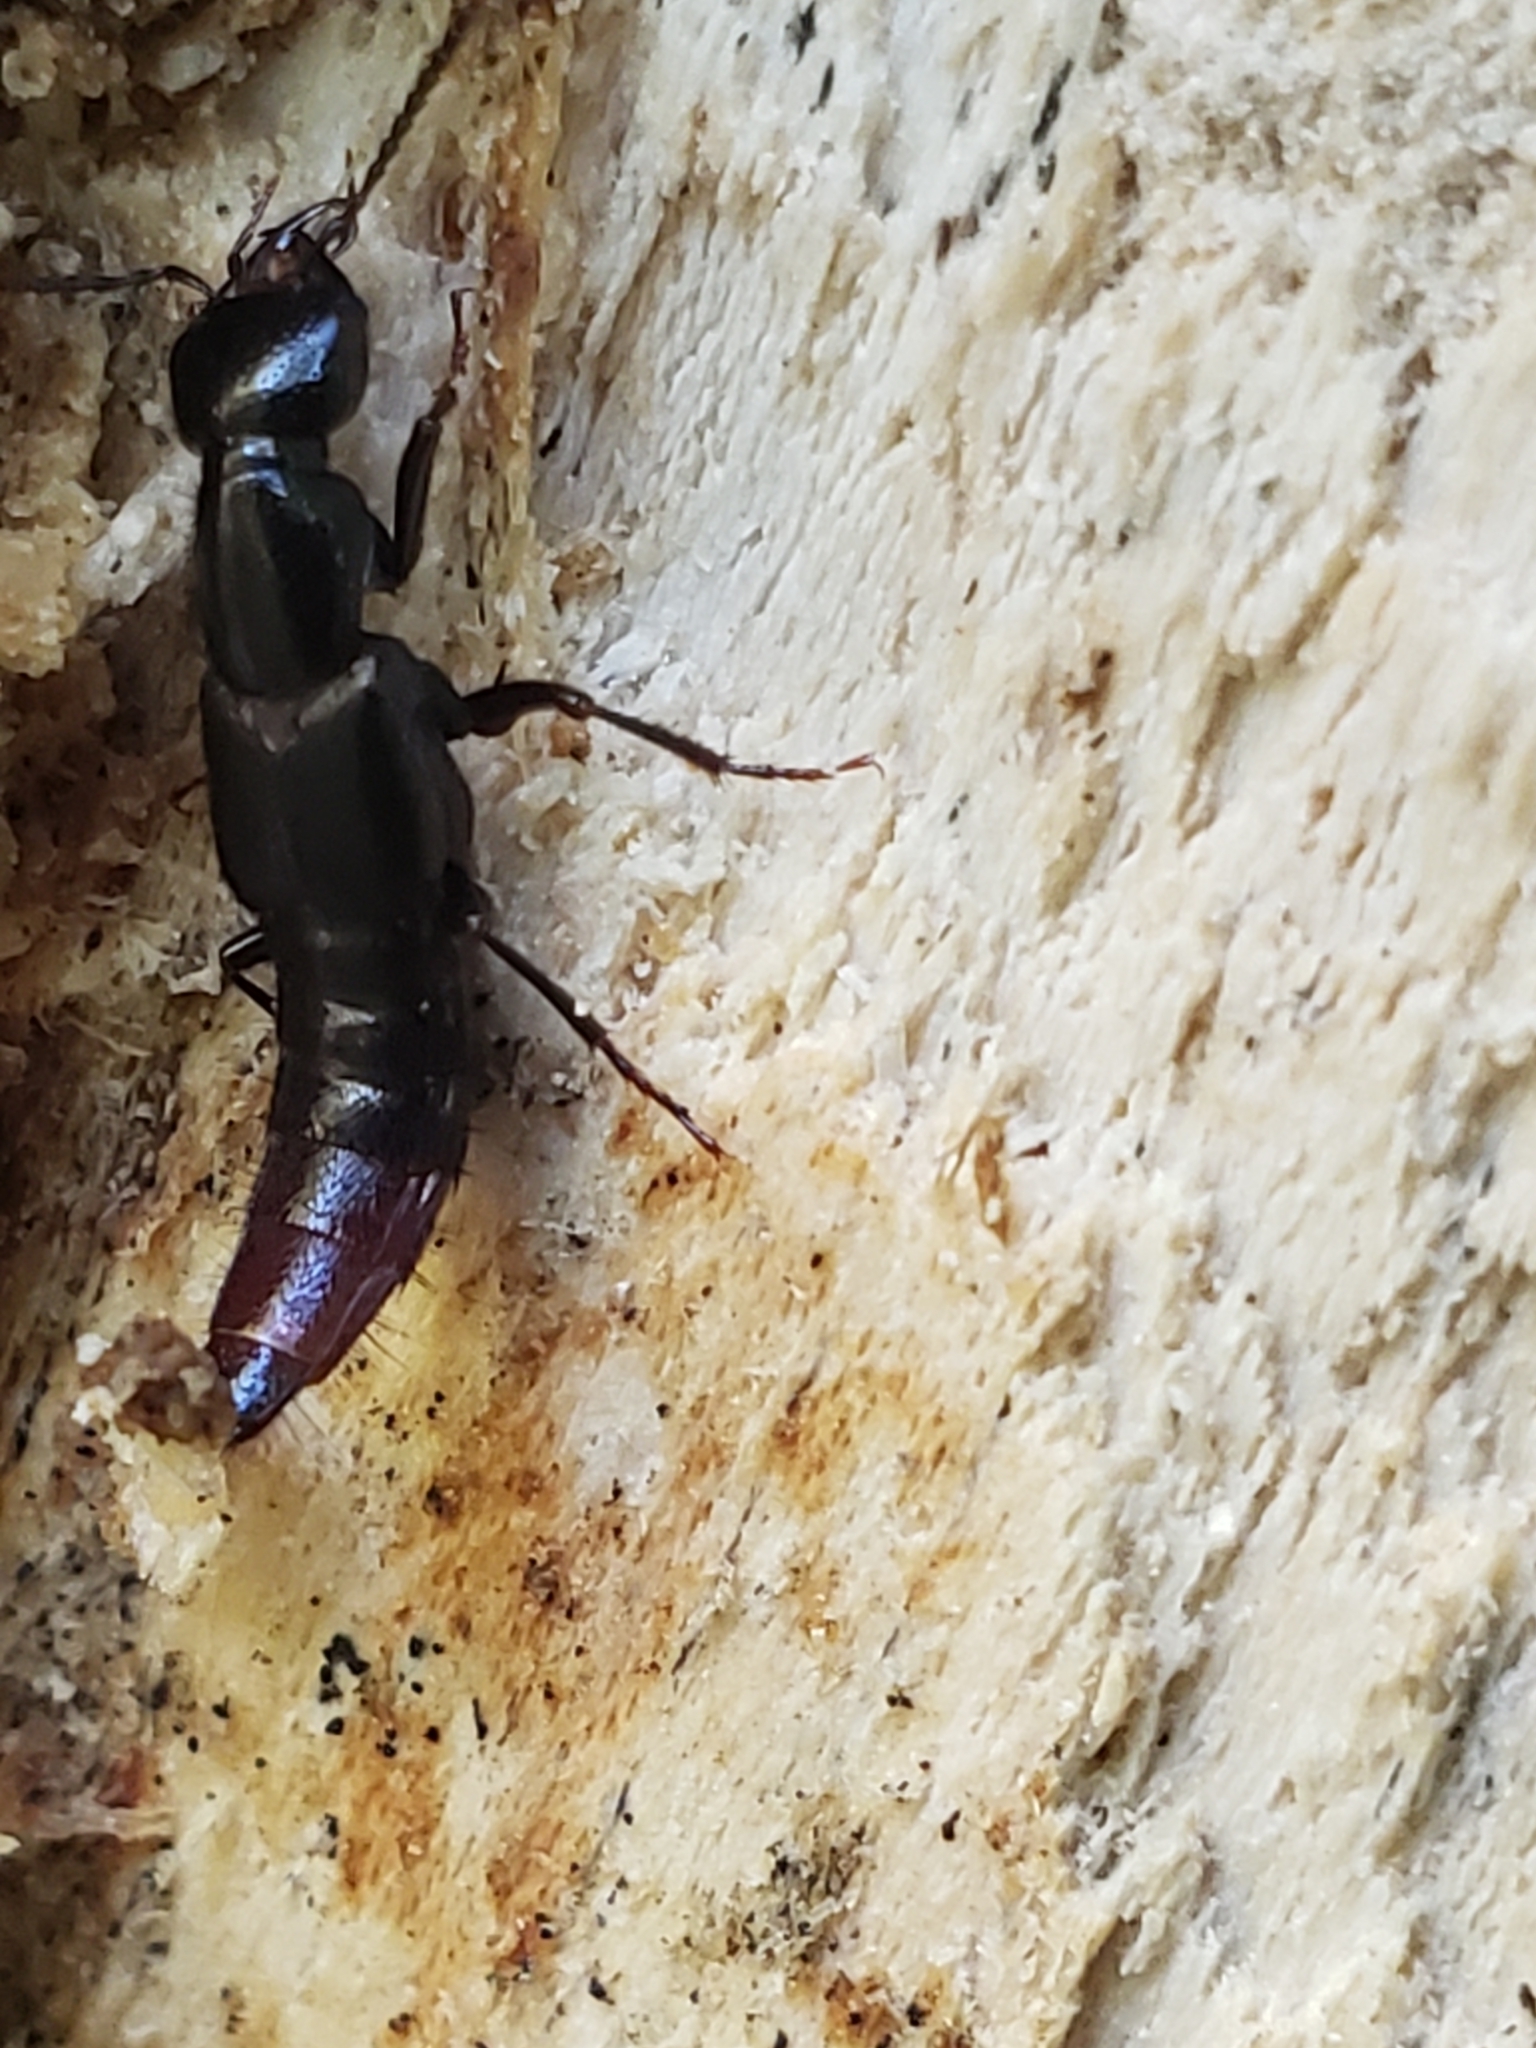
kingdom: Animalia
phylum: Arthropoda
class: Insecta
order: Coleoptera
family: Staphylinidae
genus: Hesperus
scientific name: Hesperus apicialis
